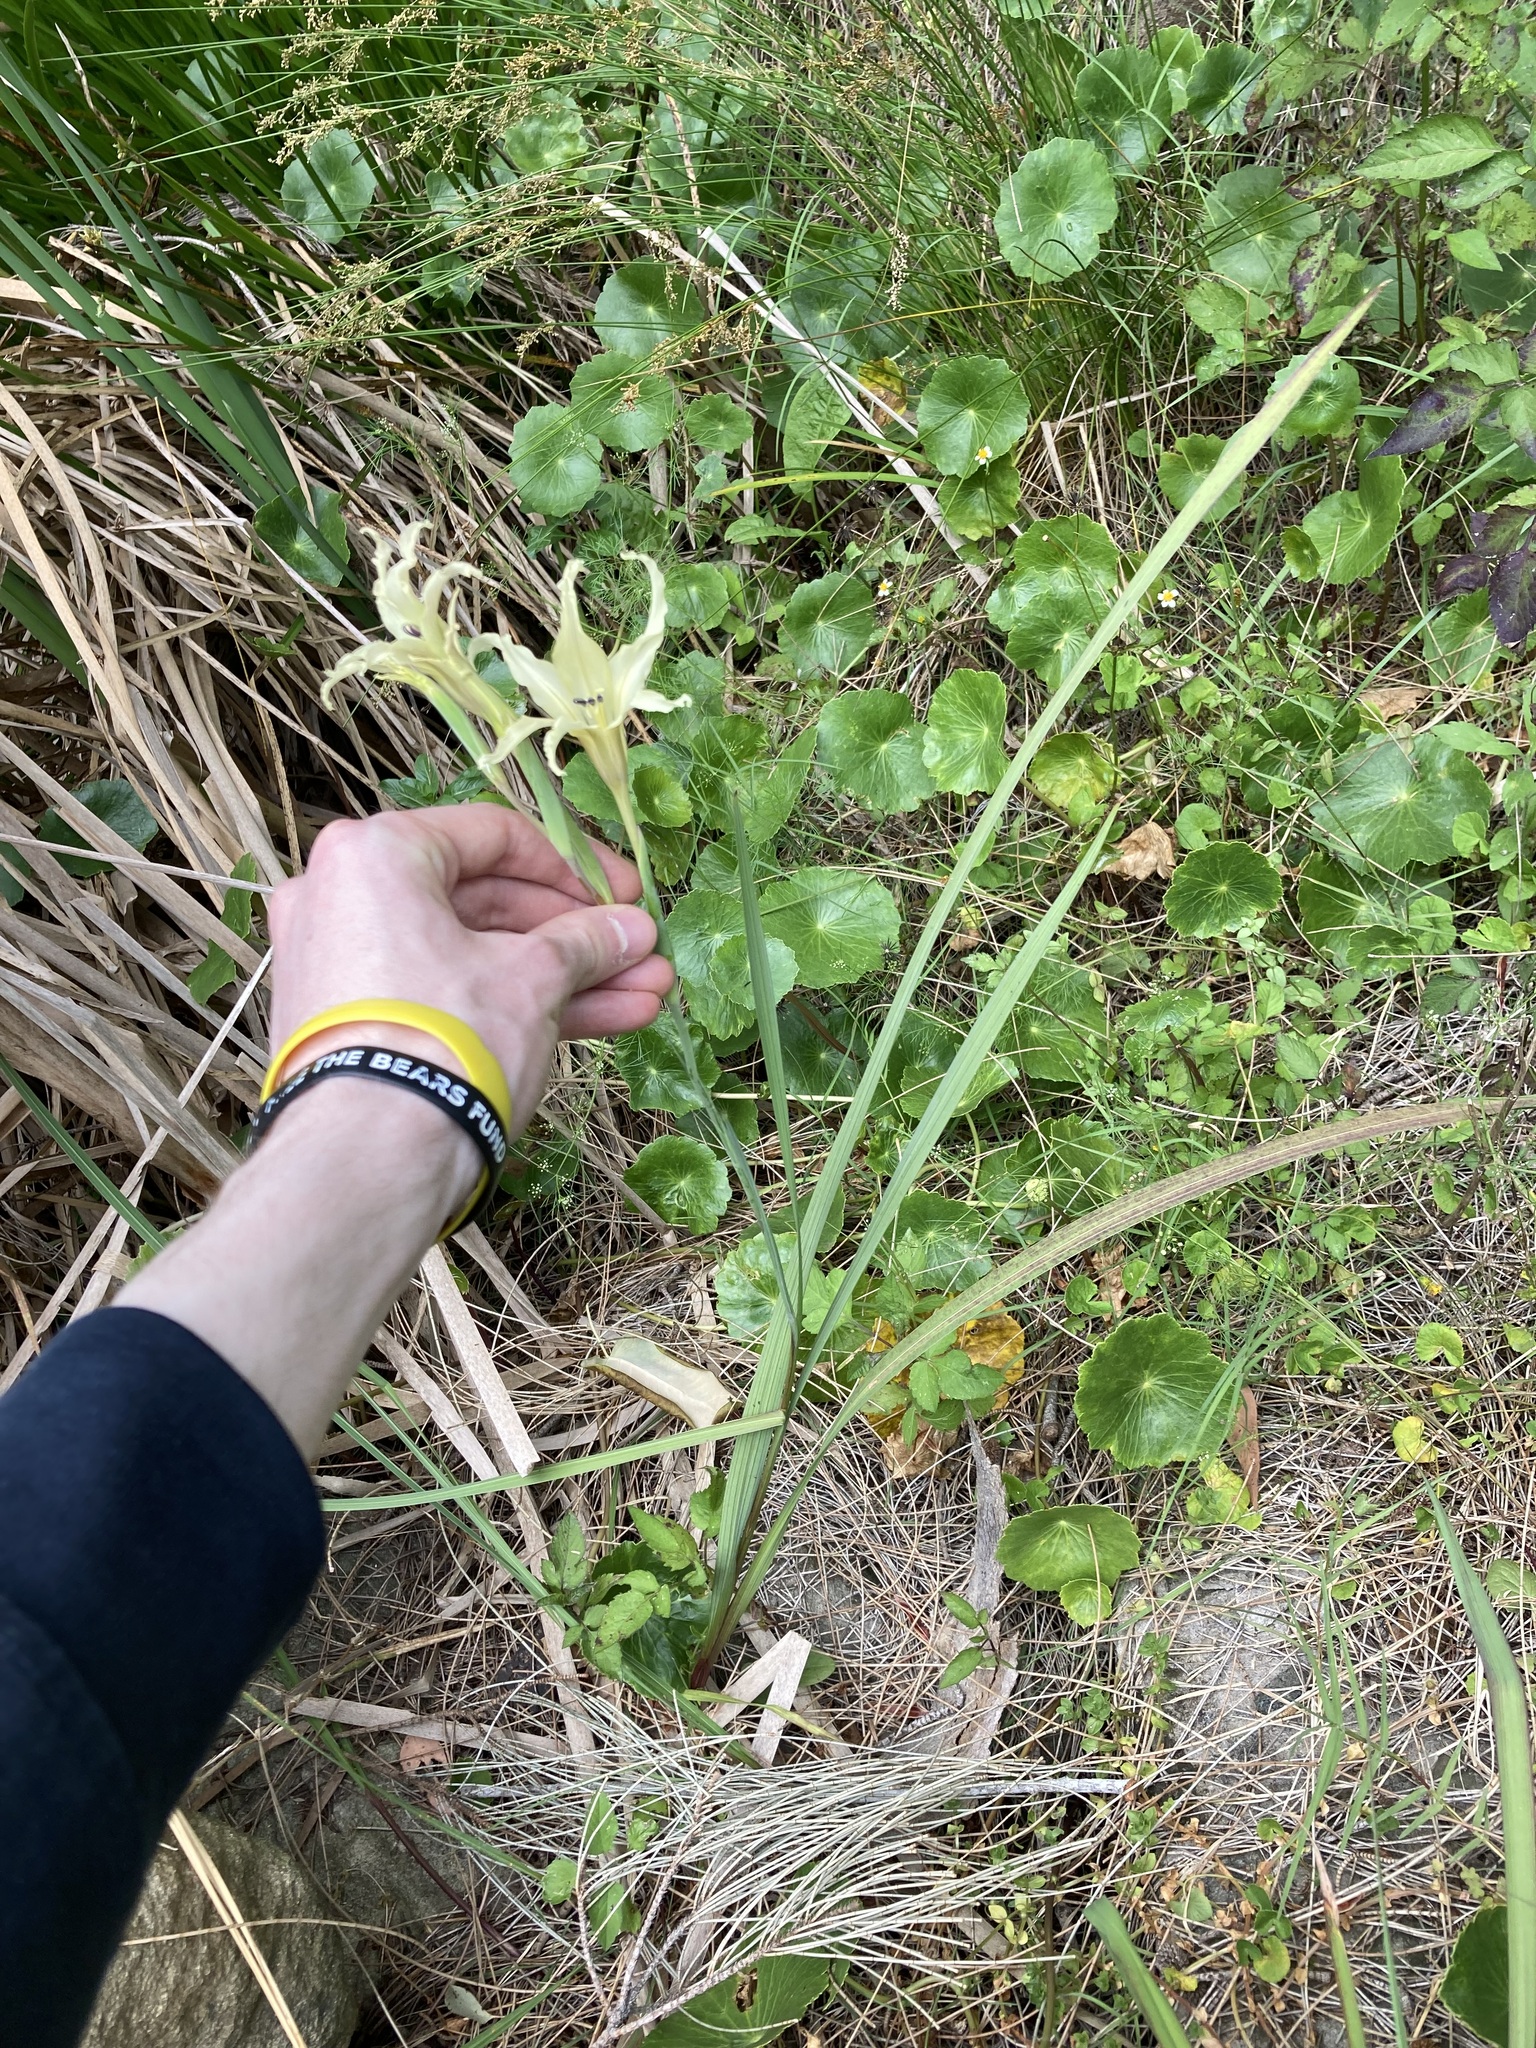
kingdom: Plantae
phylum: Tracheophyta
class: Liliopsida
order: Asparagales
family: Iridaceae
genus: Gladiolus
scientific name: Gladiolus undulatus
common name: Large painted-lady
